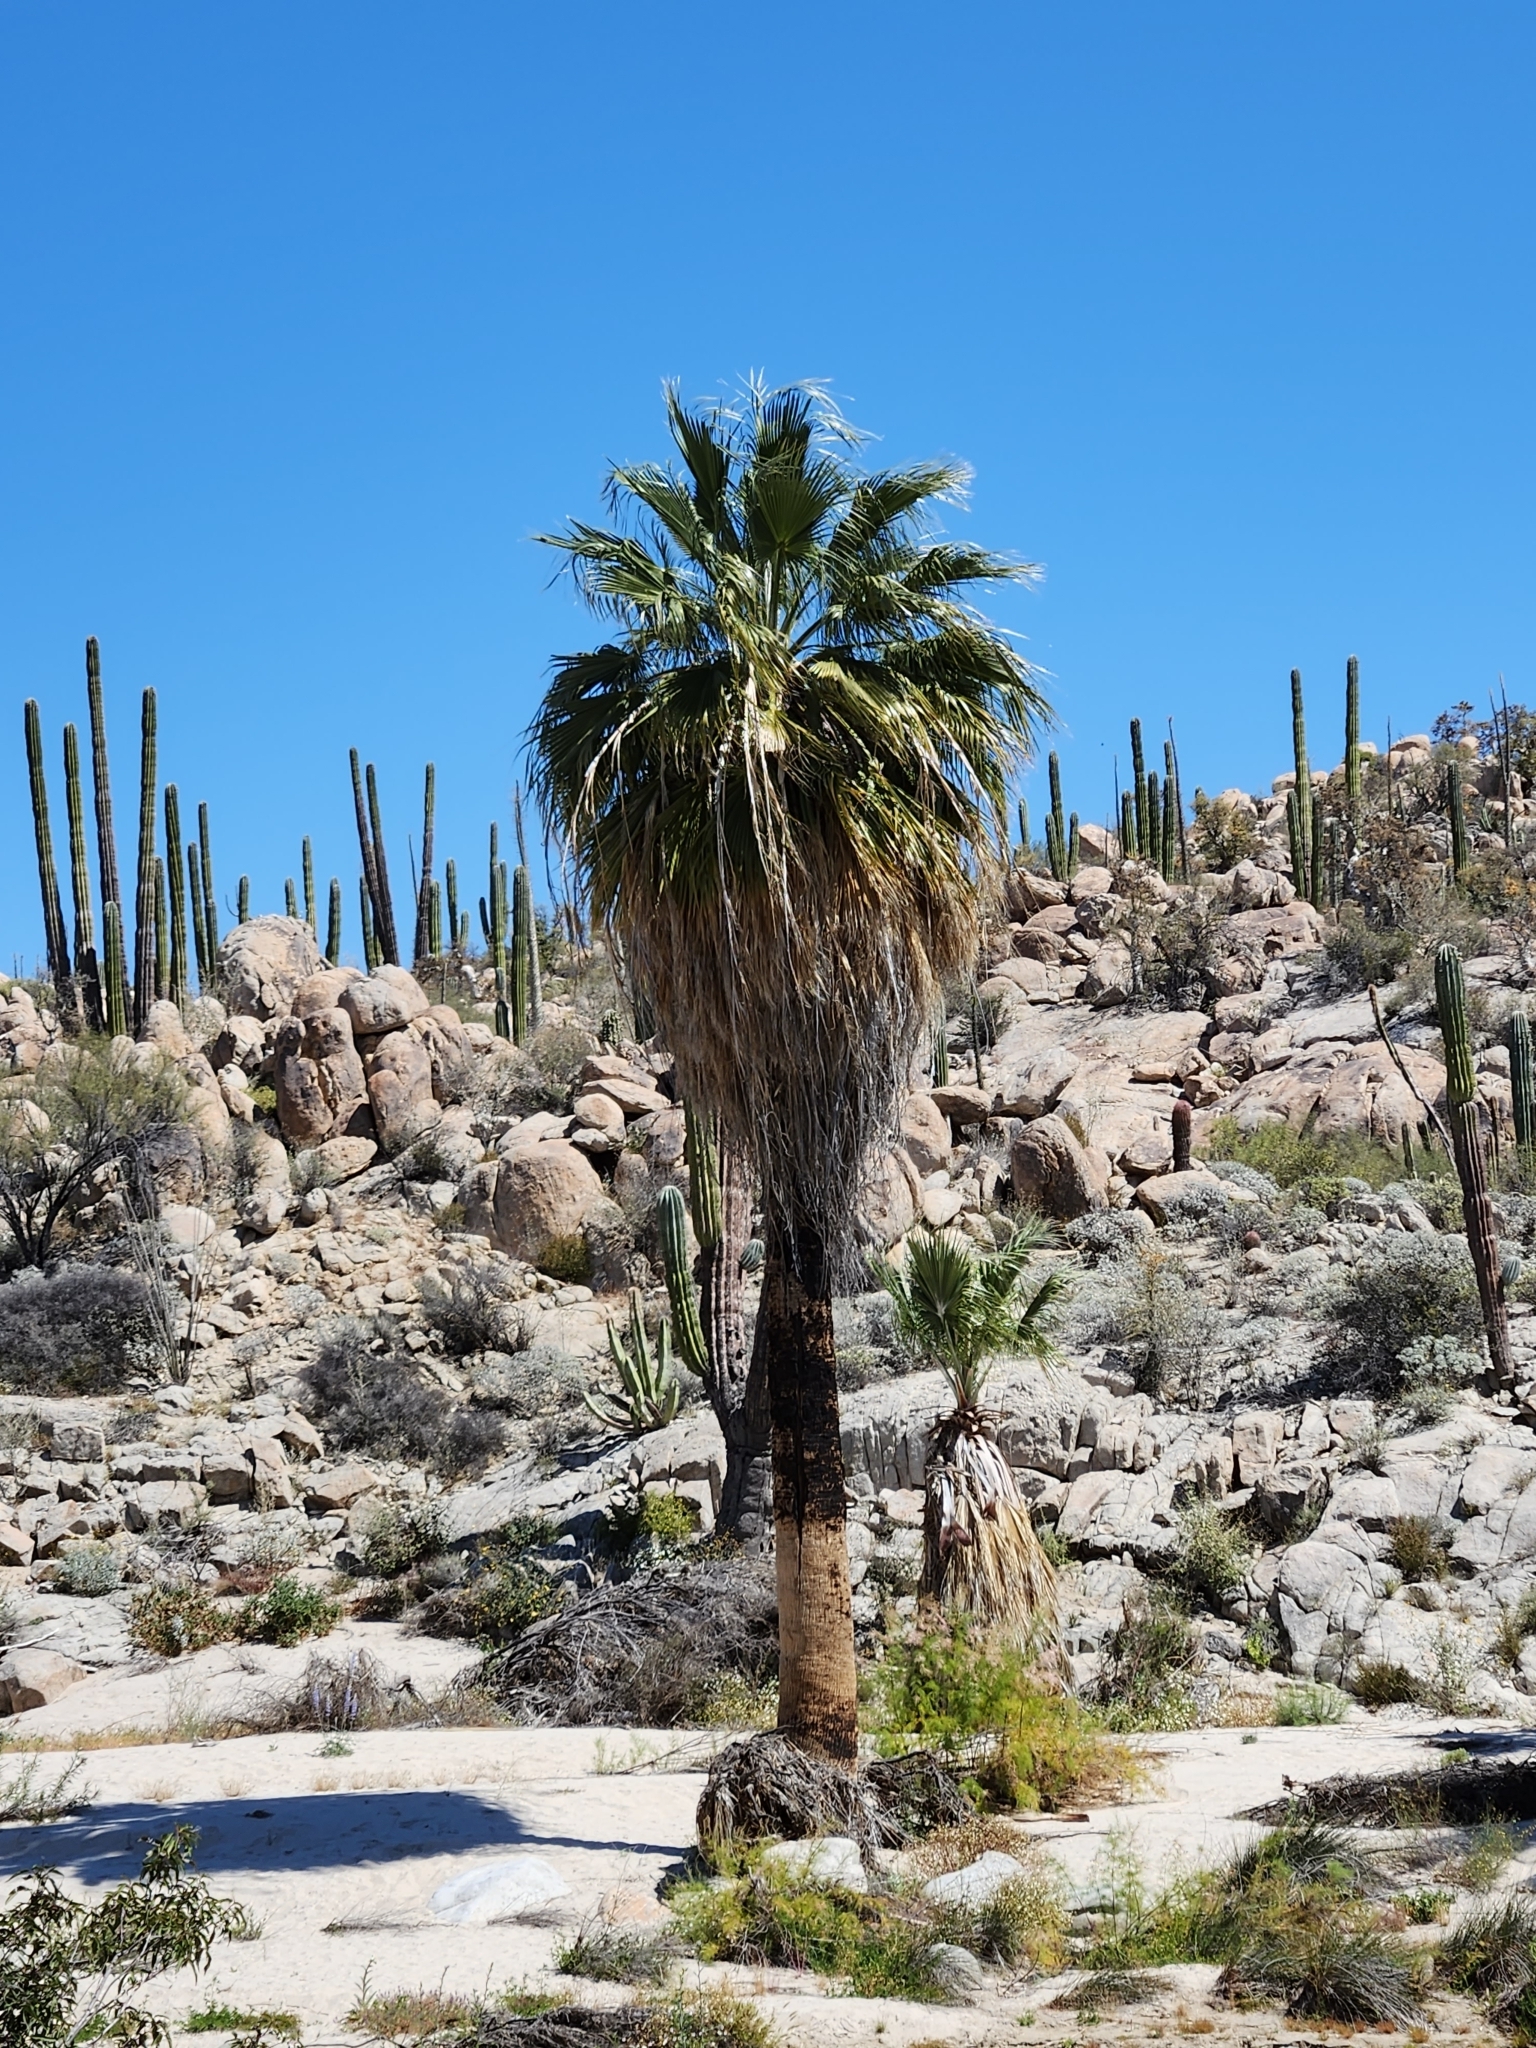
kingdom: Plantae
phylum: Tracheophyta
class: Liliopsida
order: Arecales
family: Arecaceae
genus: Washingtonia
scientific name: Washingtonia robusta
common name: Mexican fan palm
